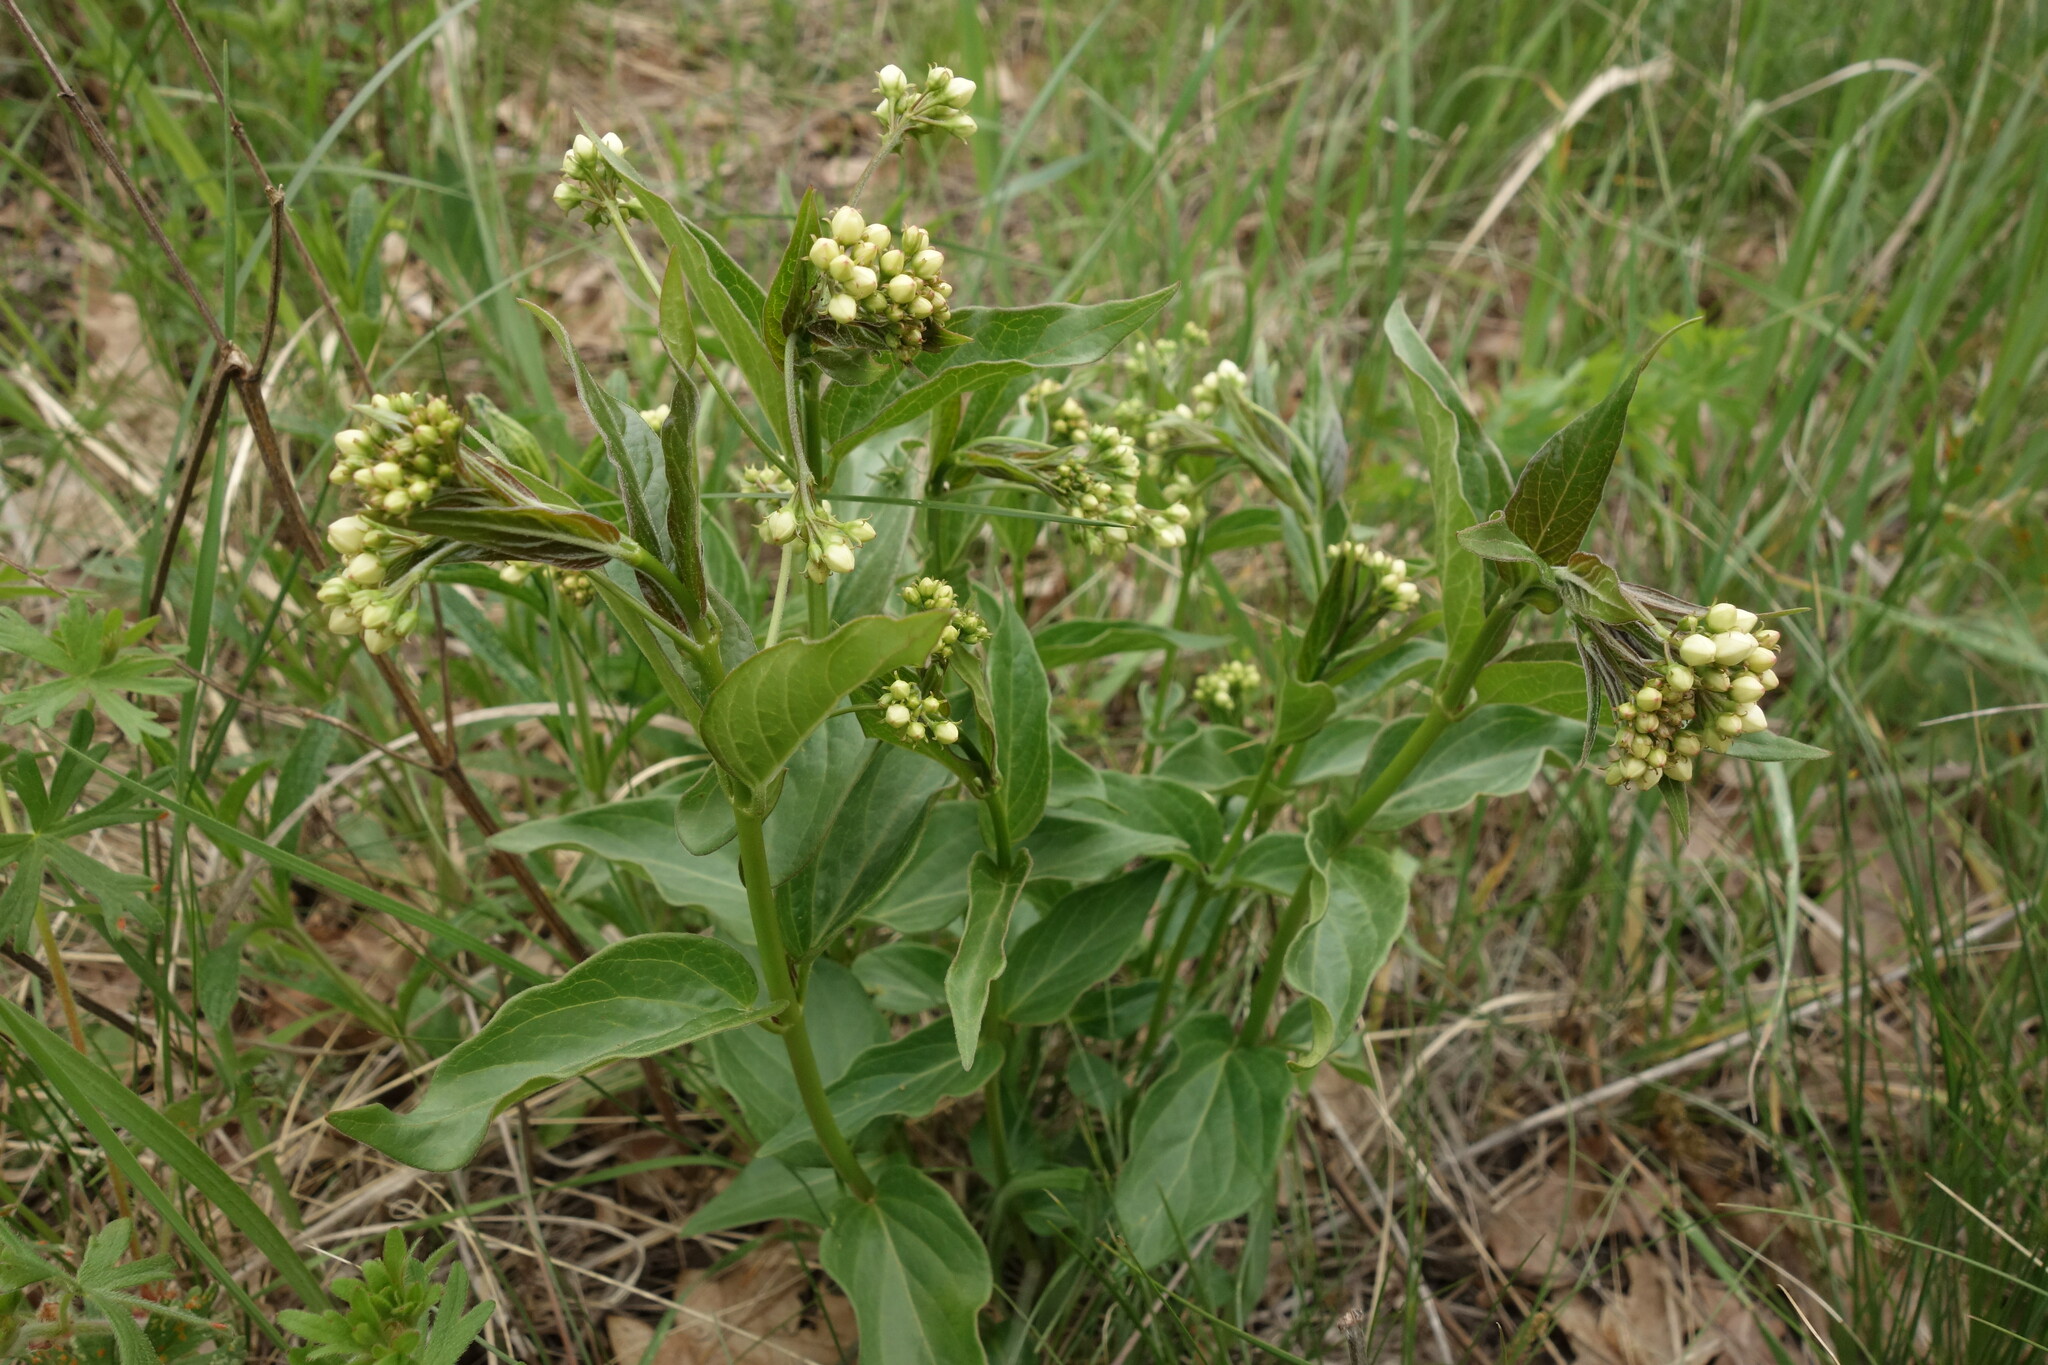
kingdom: Plantae
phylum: Tracheophyta
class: Magnoliopsida
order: Gentianales
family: Apocynaceae
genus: Vincetoxicum
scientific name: Vincetoxicum hirundinaria
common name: White swallowwort
